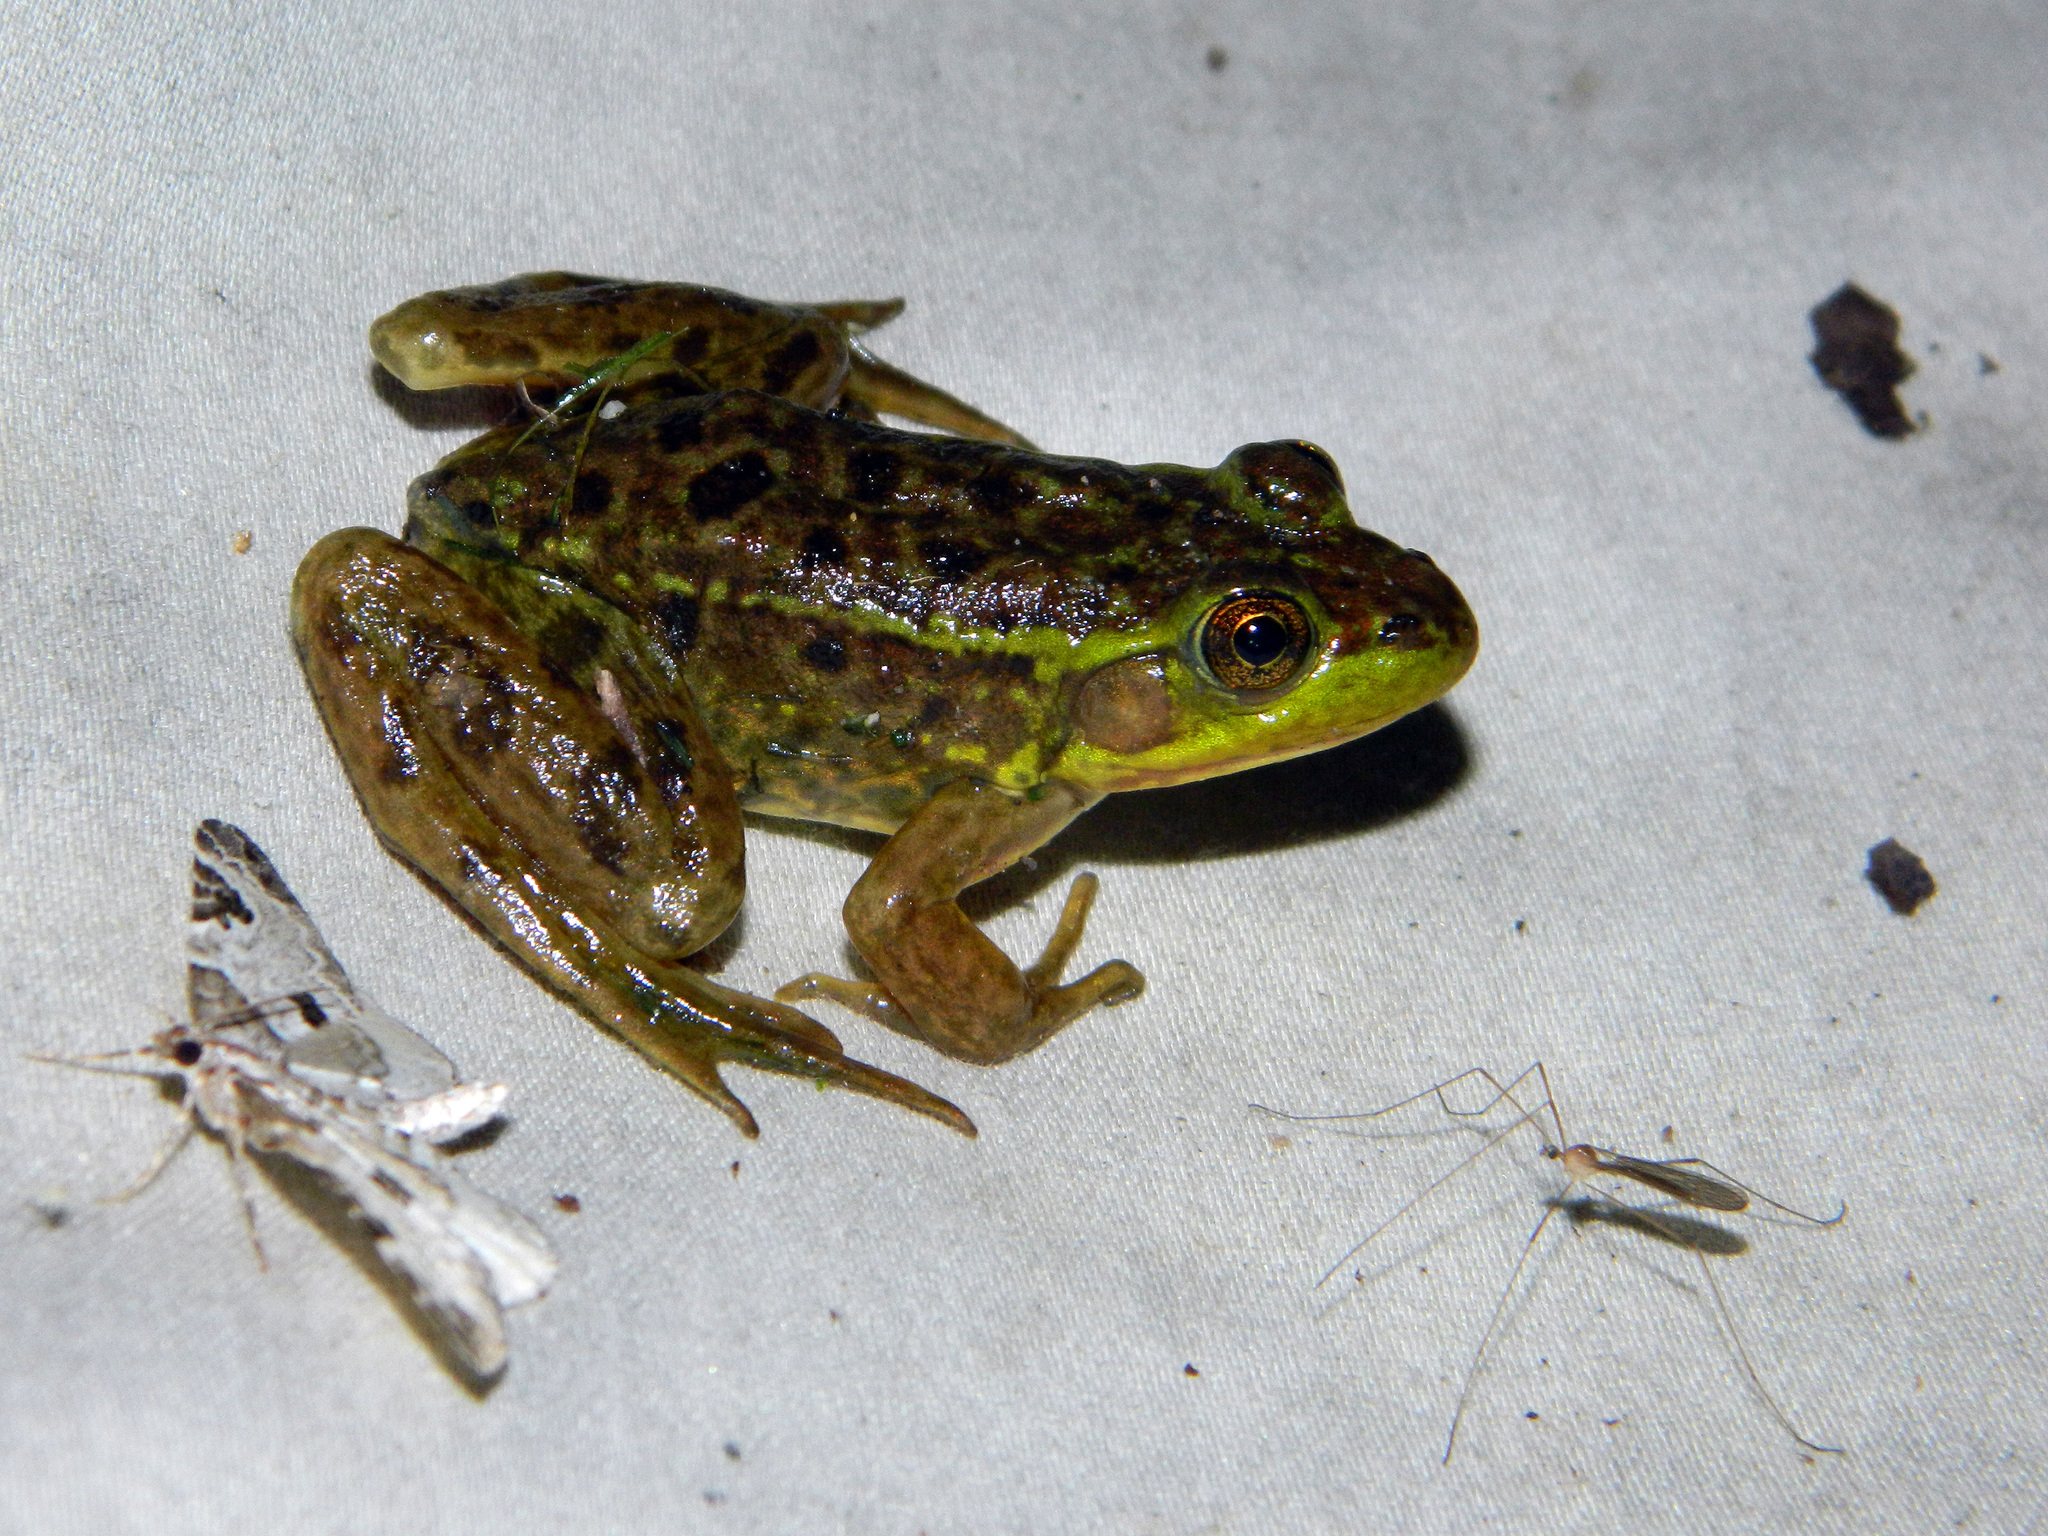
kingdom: Animalia
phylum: Chordata
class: Amphibia
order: Anura
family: Ranidae
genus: Lithobates
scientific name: Lithobates septentrionalis
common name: Mink frog
